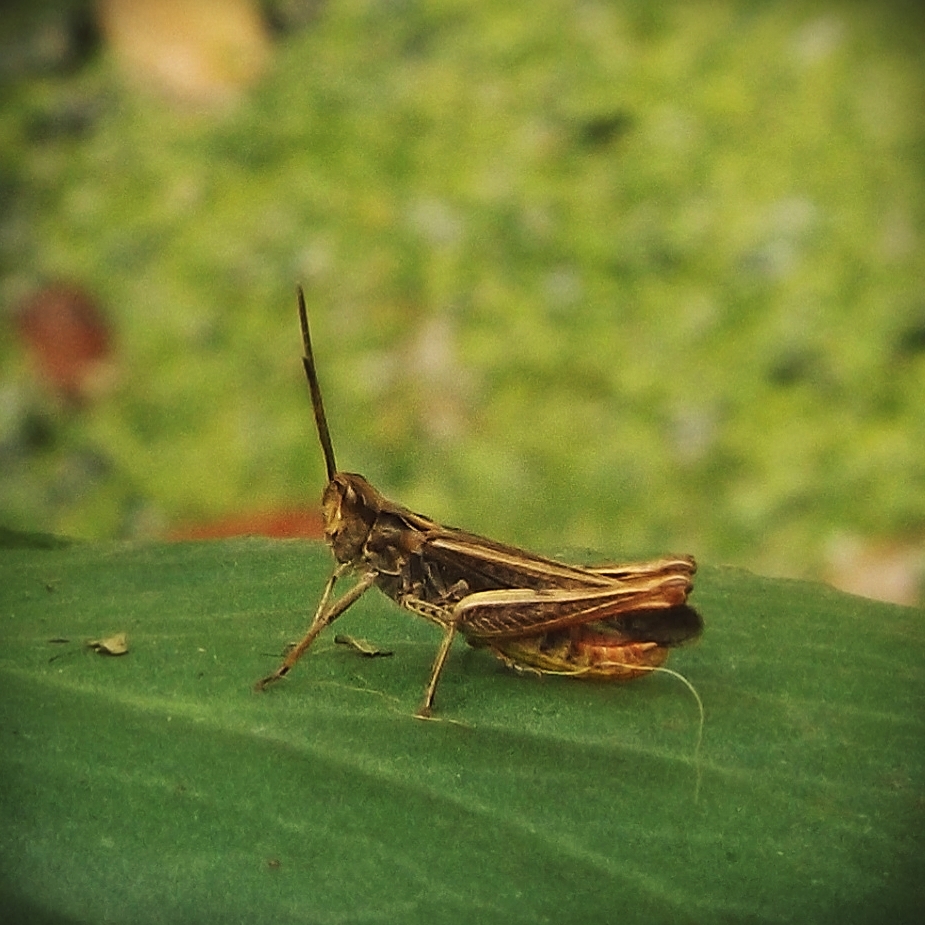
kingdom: Animalia
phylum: Arthropoda
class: Insecta
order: Orthoptera
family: Acrididae
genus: Chorthippus
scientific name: Chorthippus biguttulus
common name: Bow-winged grasshopper
